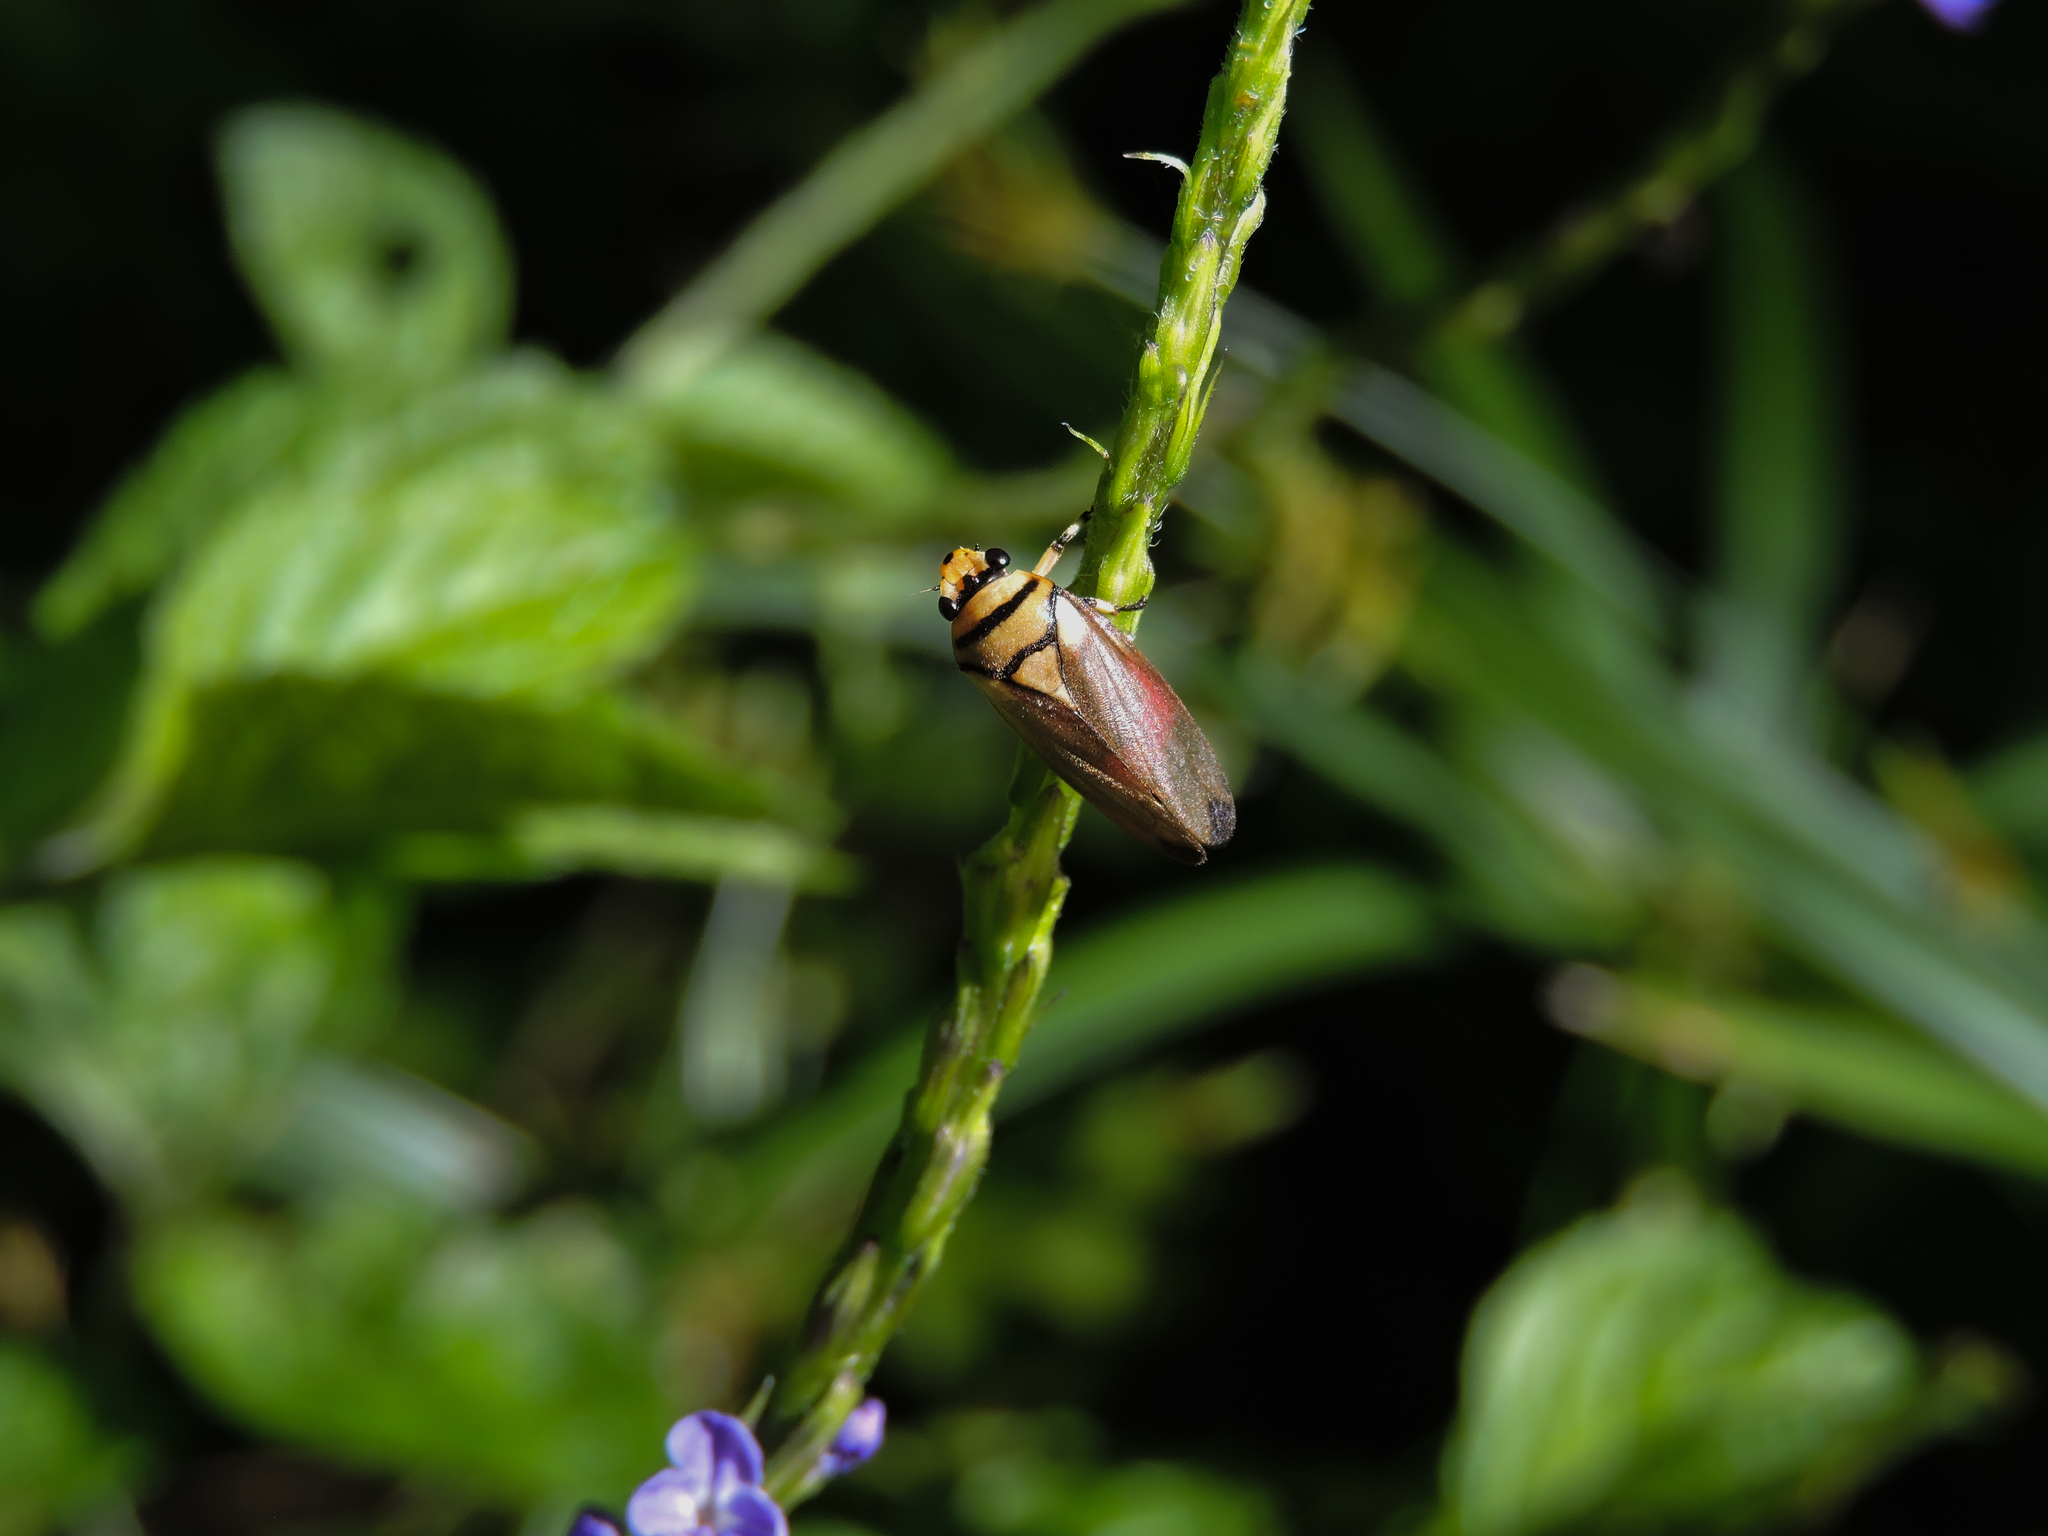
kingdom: Animalia
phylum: Arthropoda
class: Insecta
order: Hemiptera
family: Cercopidae
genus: Monecphora
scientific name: Monecphora nigritarsis
